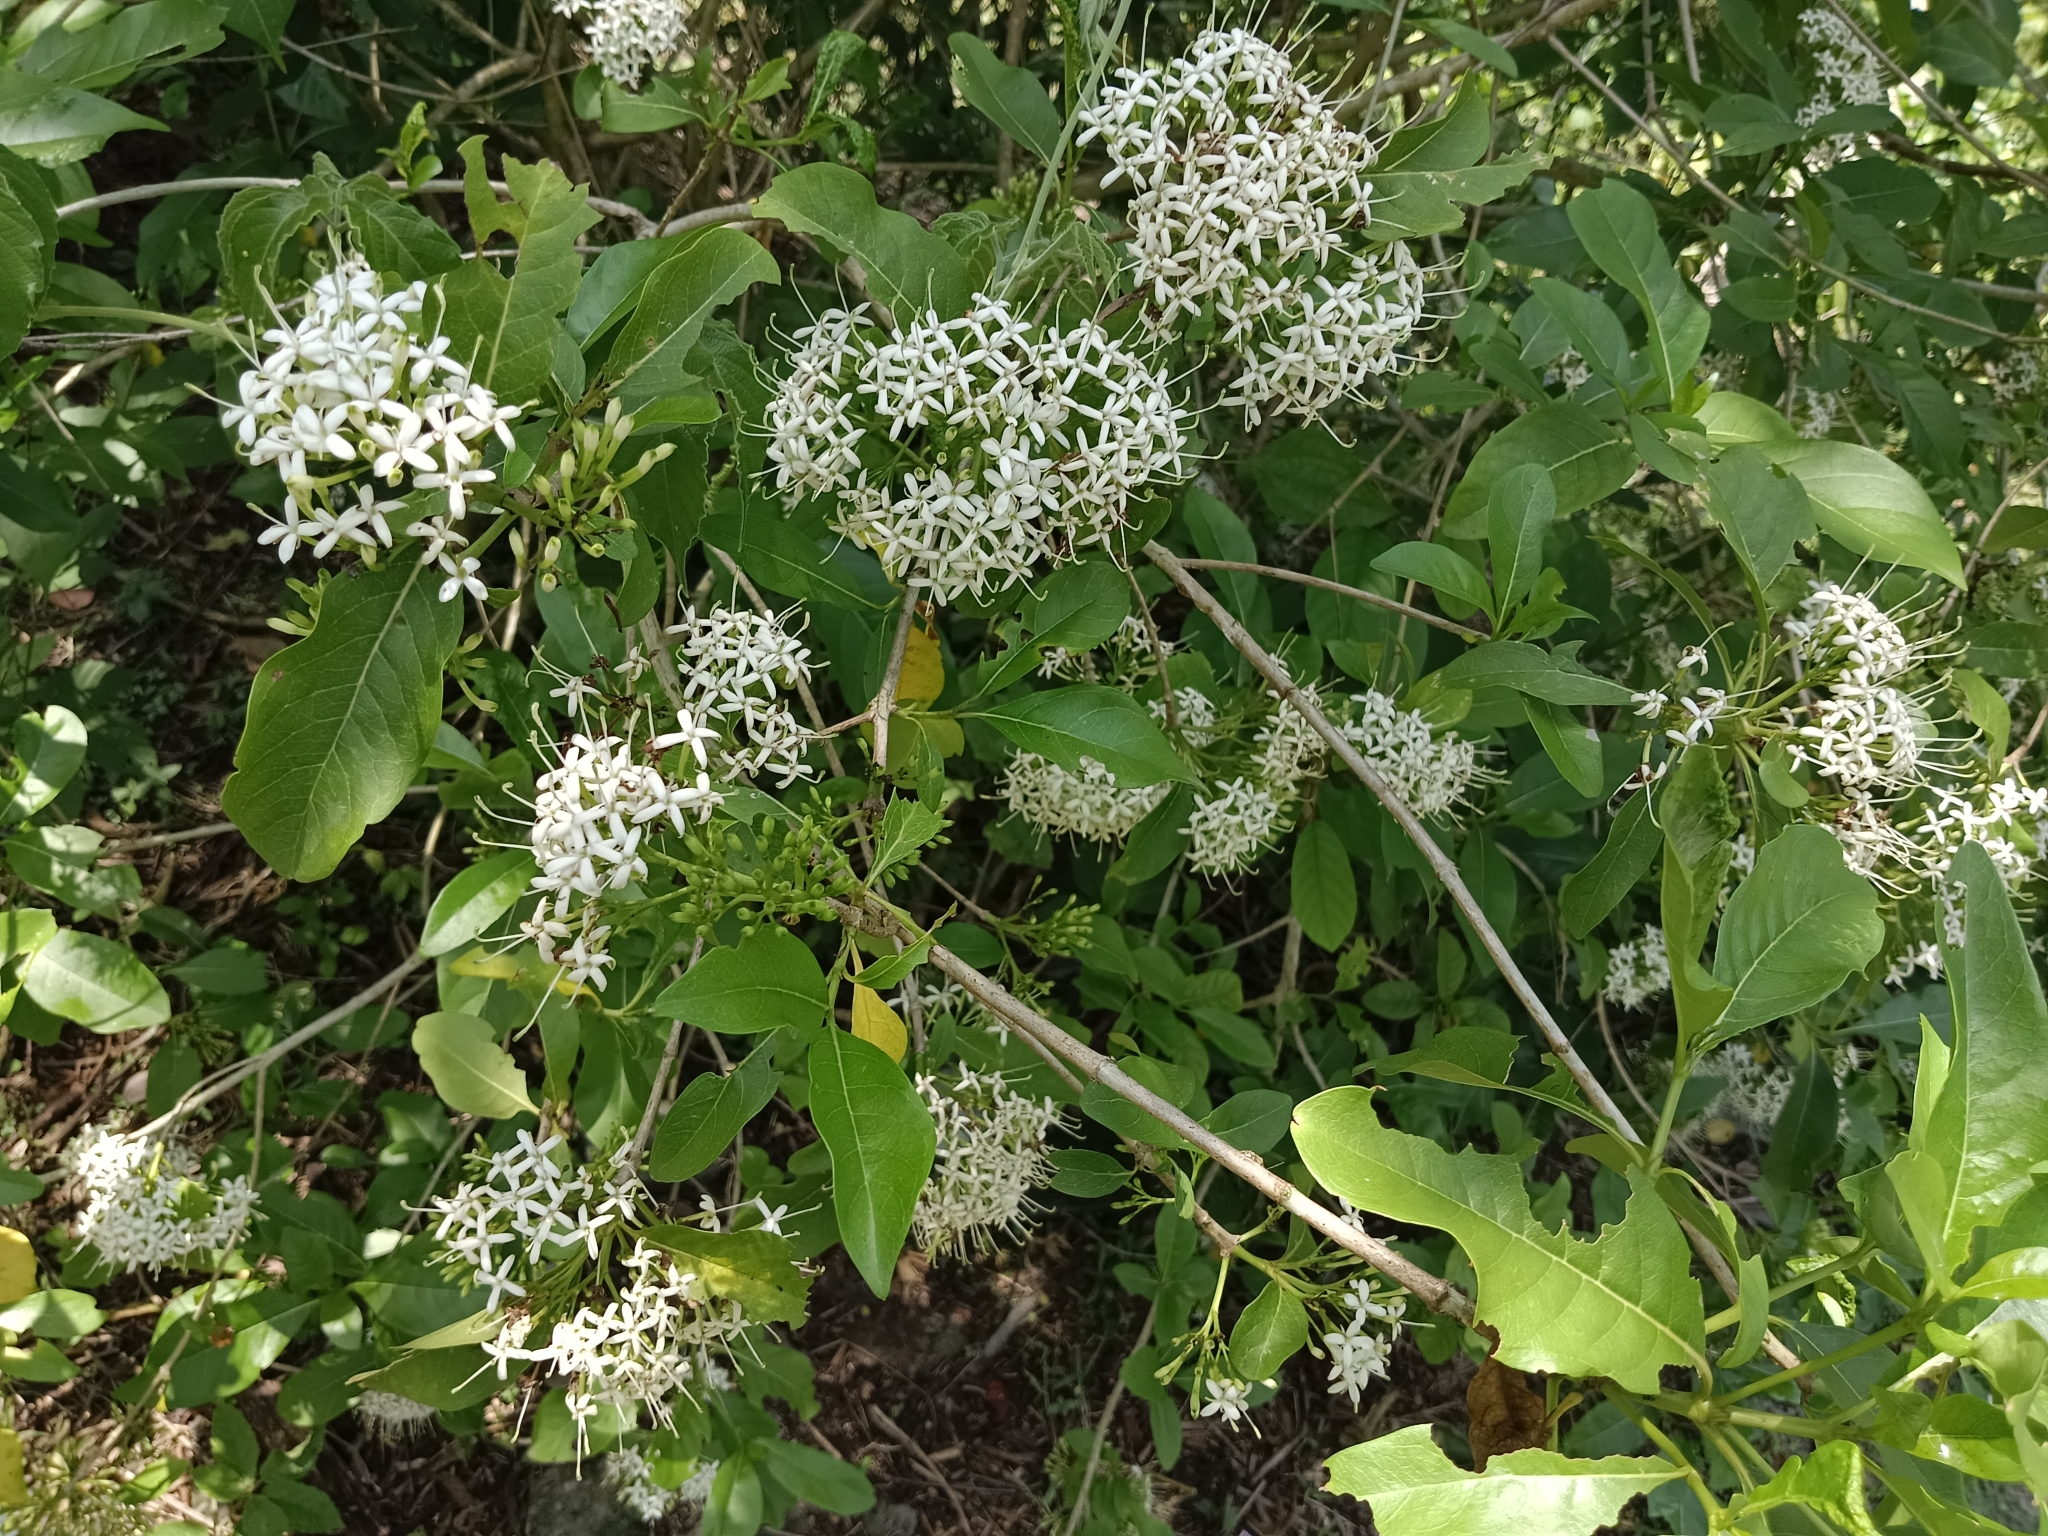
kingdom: Plantae
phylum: Tracheophyta
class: Magnoliopsida
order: Gentianales
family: Rubiaceae
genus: Pavetta
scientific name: Pavetta indica
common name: Indian pavetta
